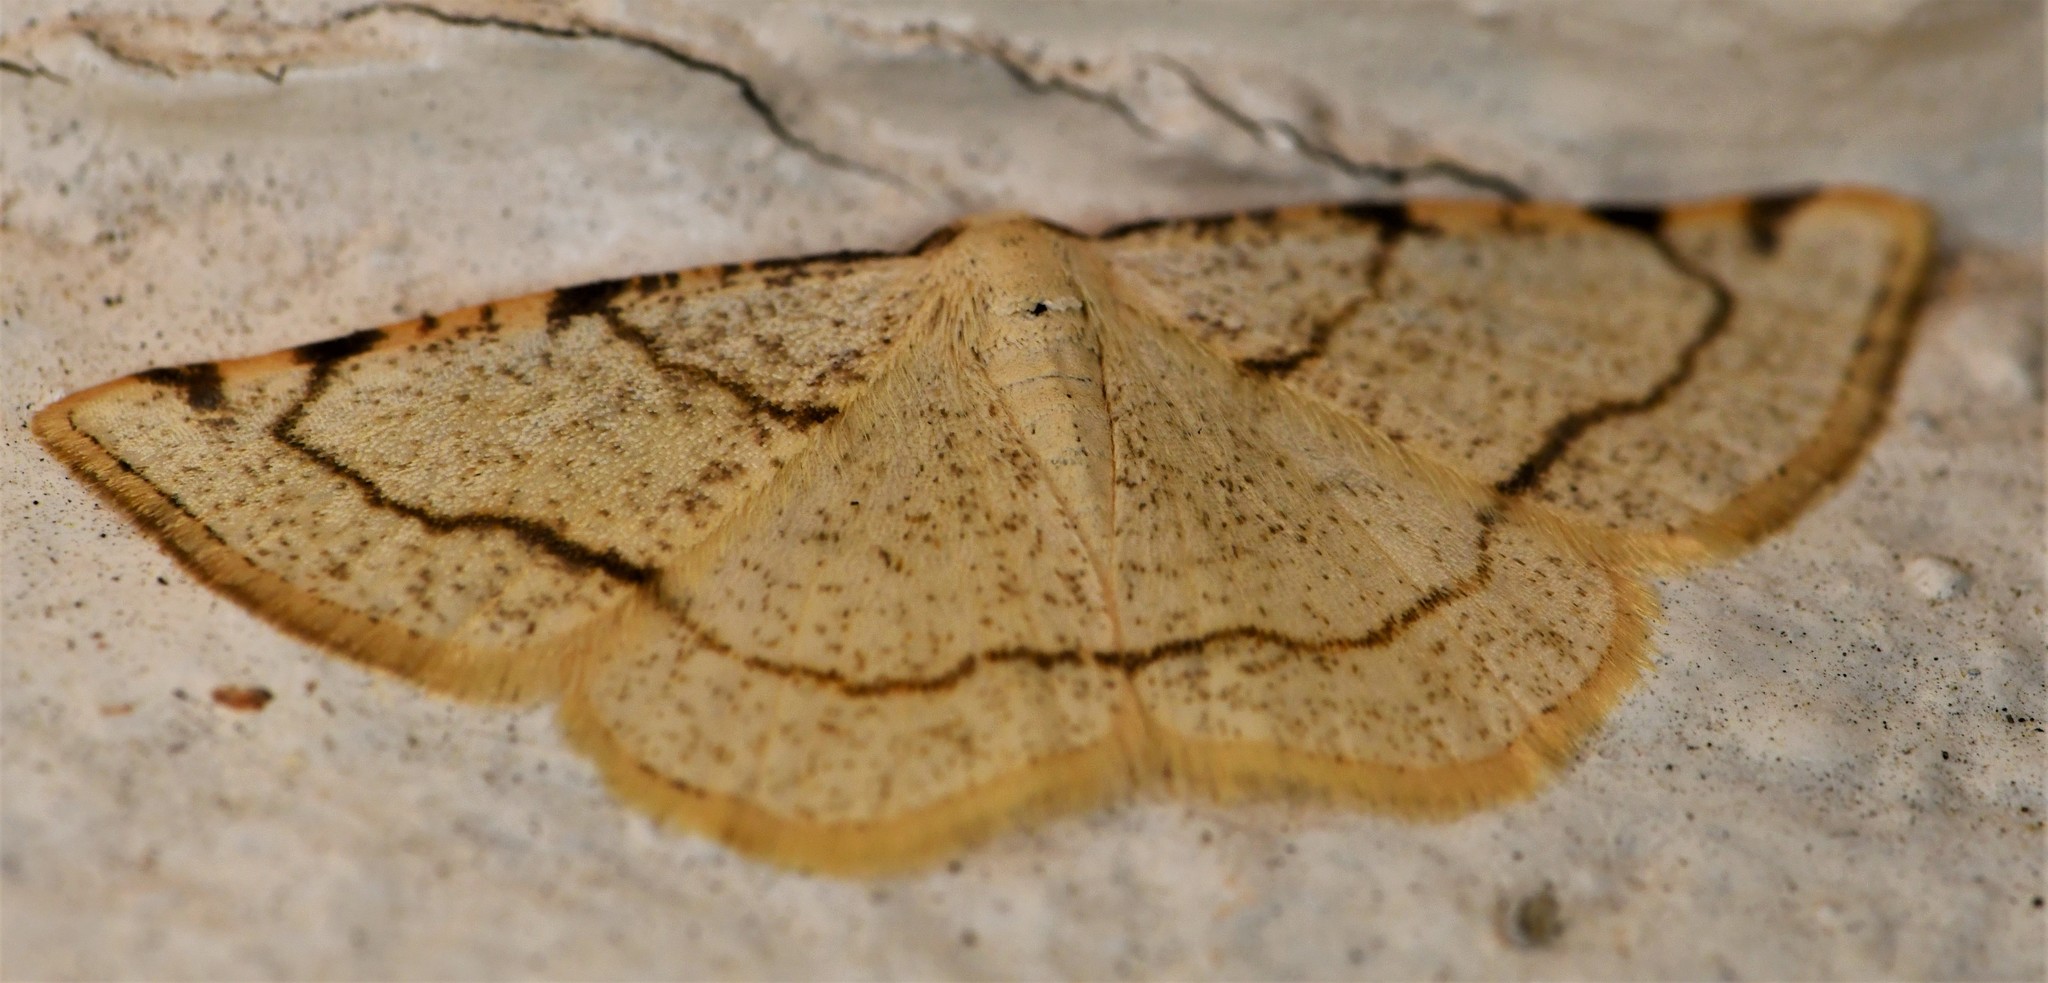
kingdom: Animalia
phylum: Arthropoda
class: Insecta
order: Lepidoptera
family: Geometridae
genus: Stegania
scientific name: Stegania trimaculata
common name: Dorset cream wave
